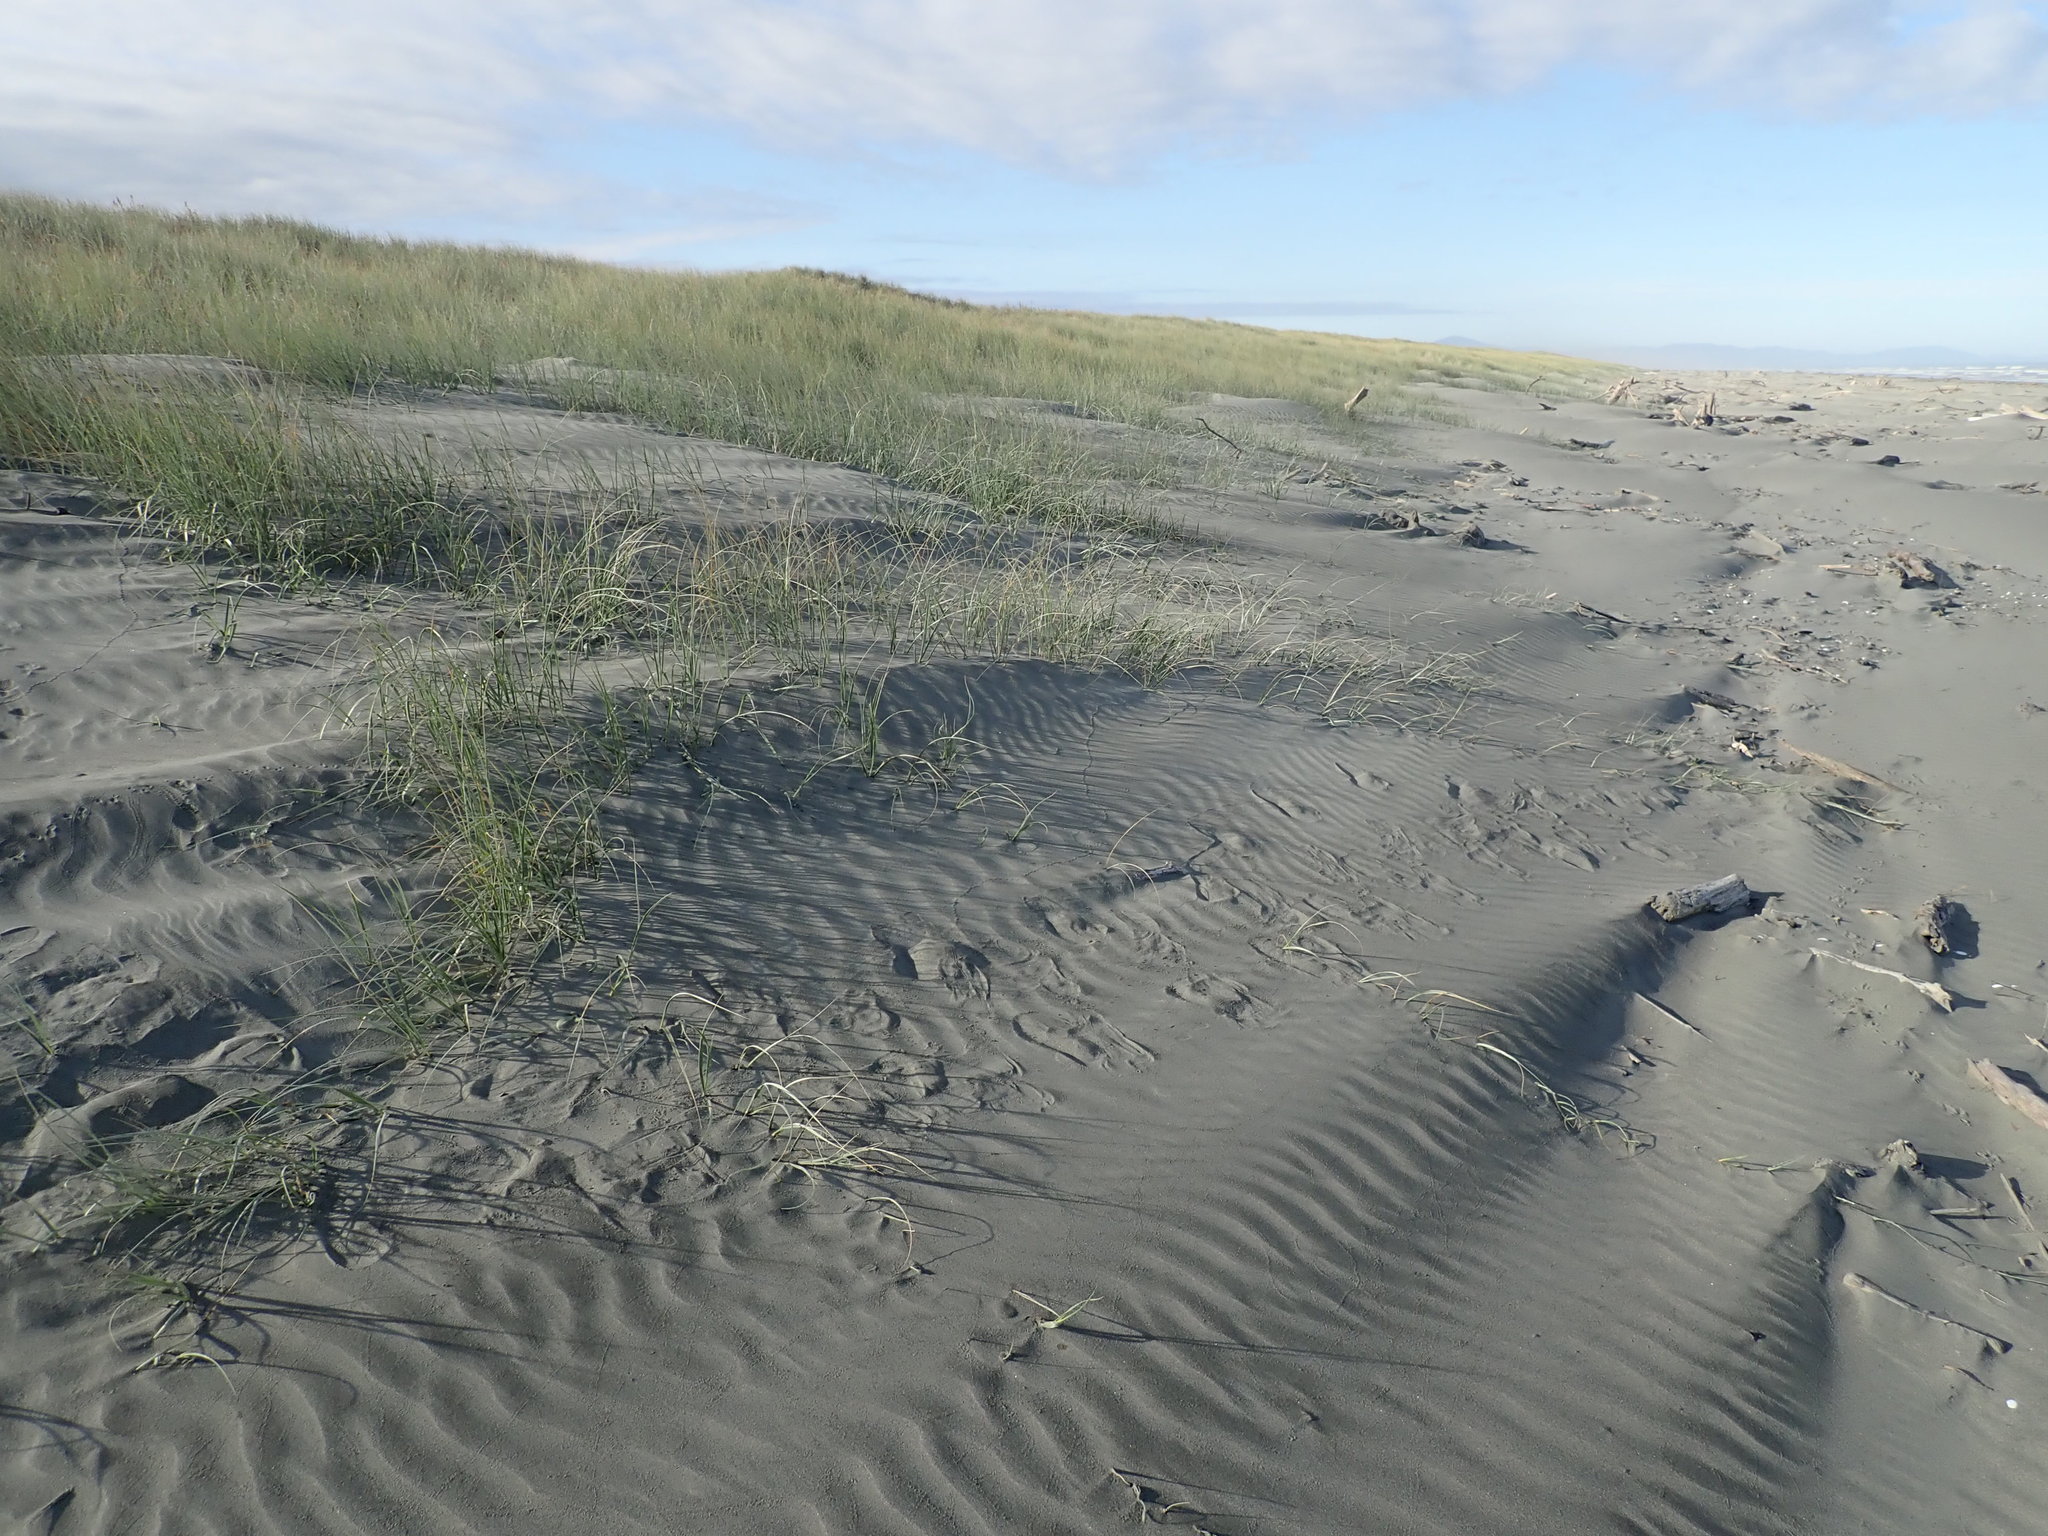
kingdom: Plantae
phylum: Tracheophyta
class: Liliopsida
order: Poales
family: Poaceae
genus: Spinifex
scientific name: Spinifex sericeus
